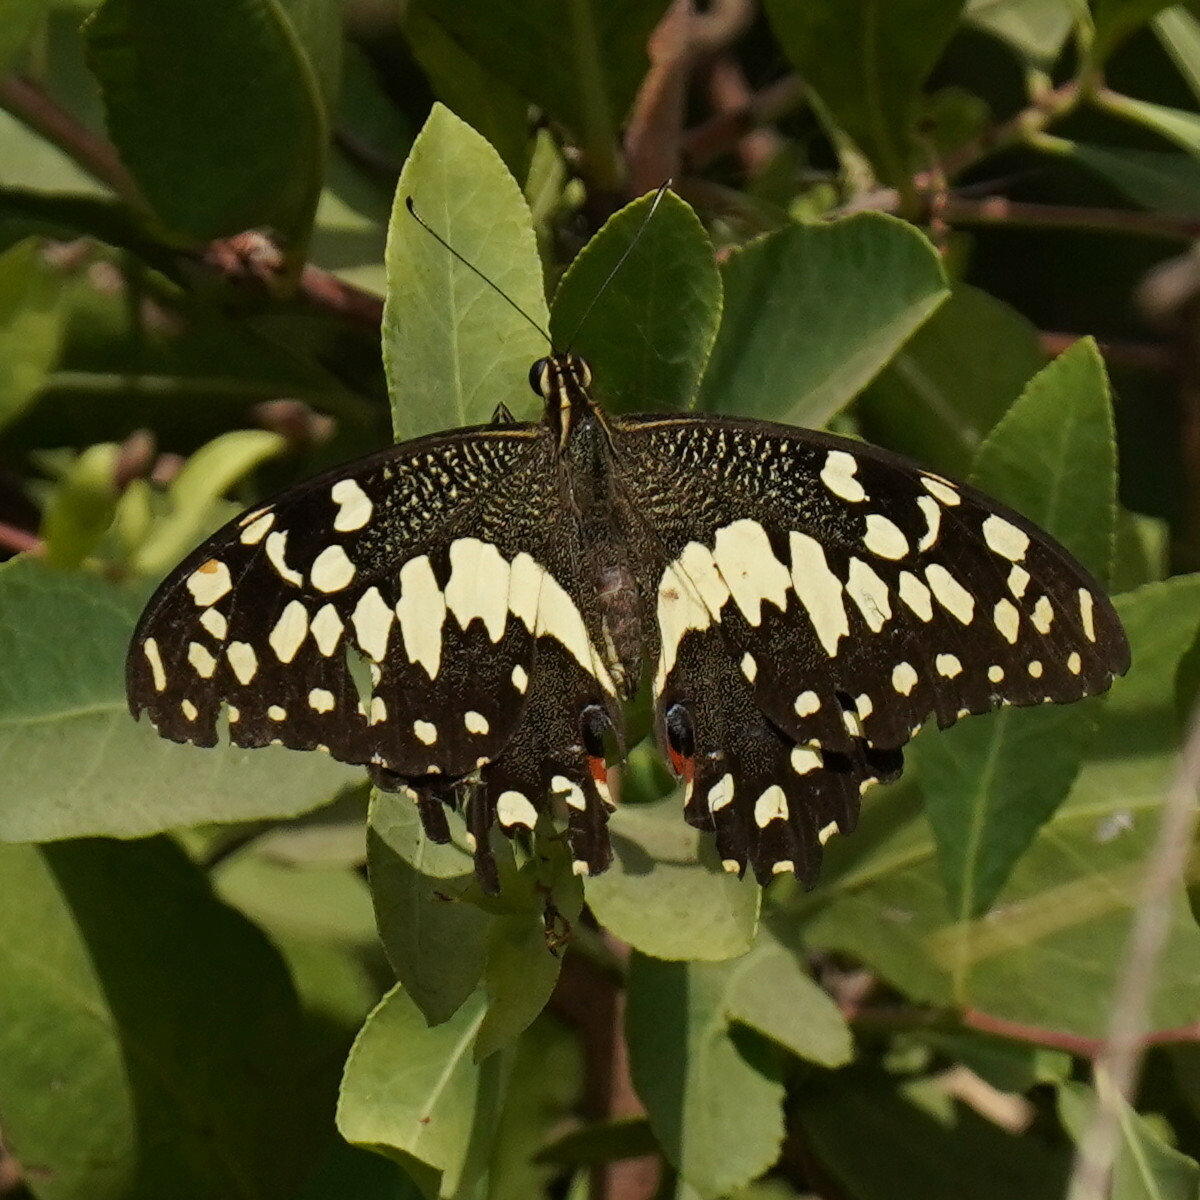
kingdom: Animalia
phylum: Arthropoda
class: Insecta
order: Lepidoptera
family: Papilionidae
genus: Papilio
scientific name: Papilio demodocus
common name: Christmas butterfly
